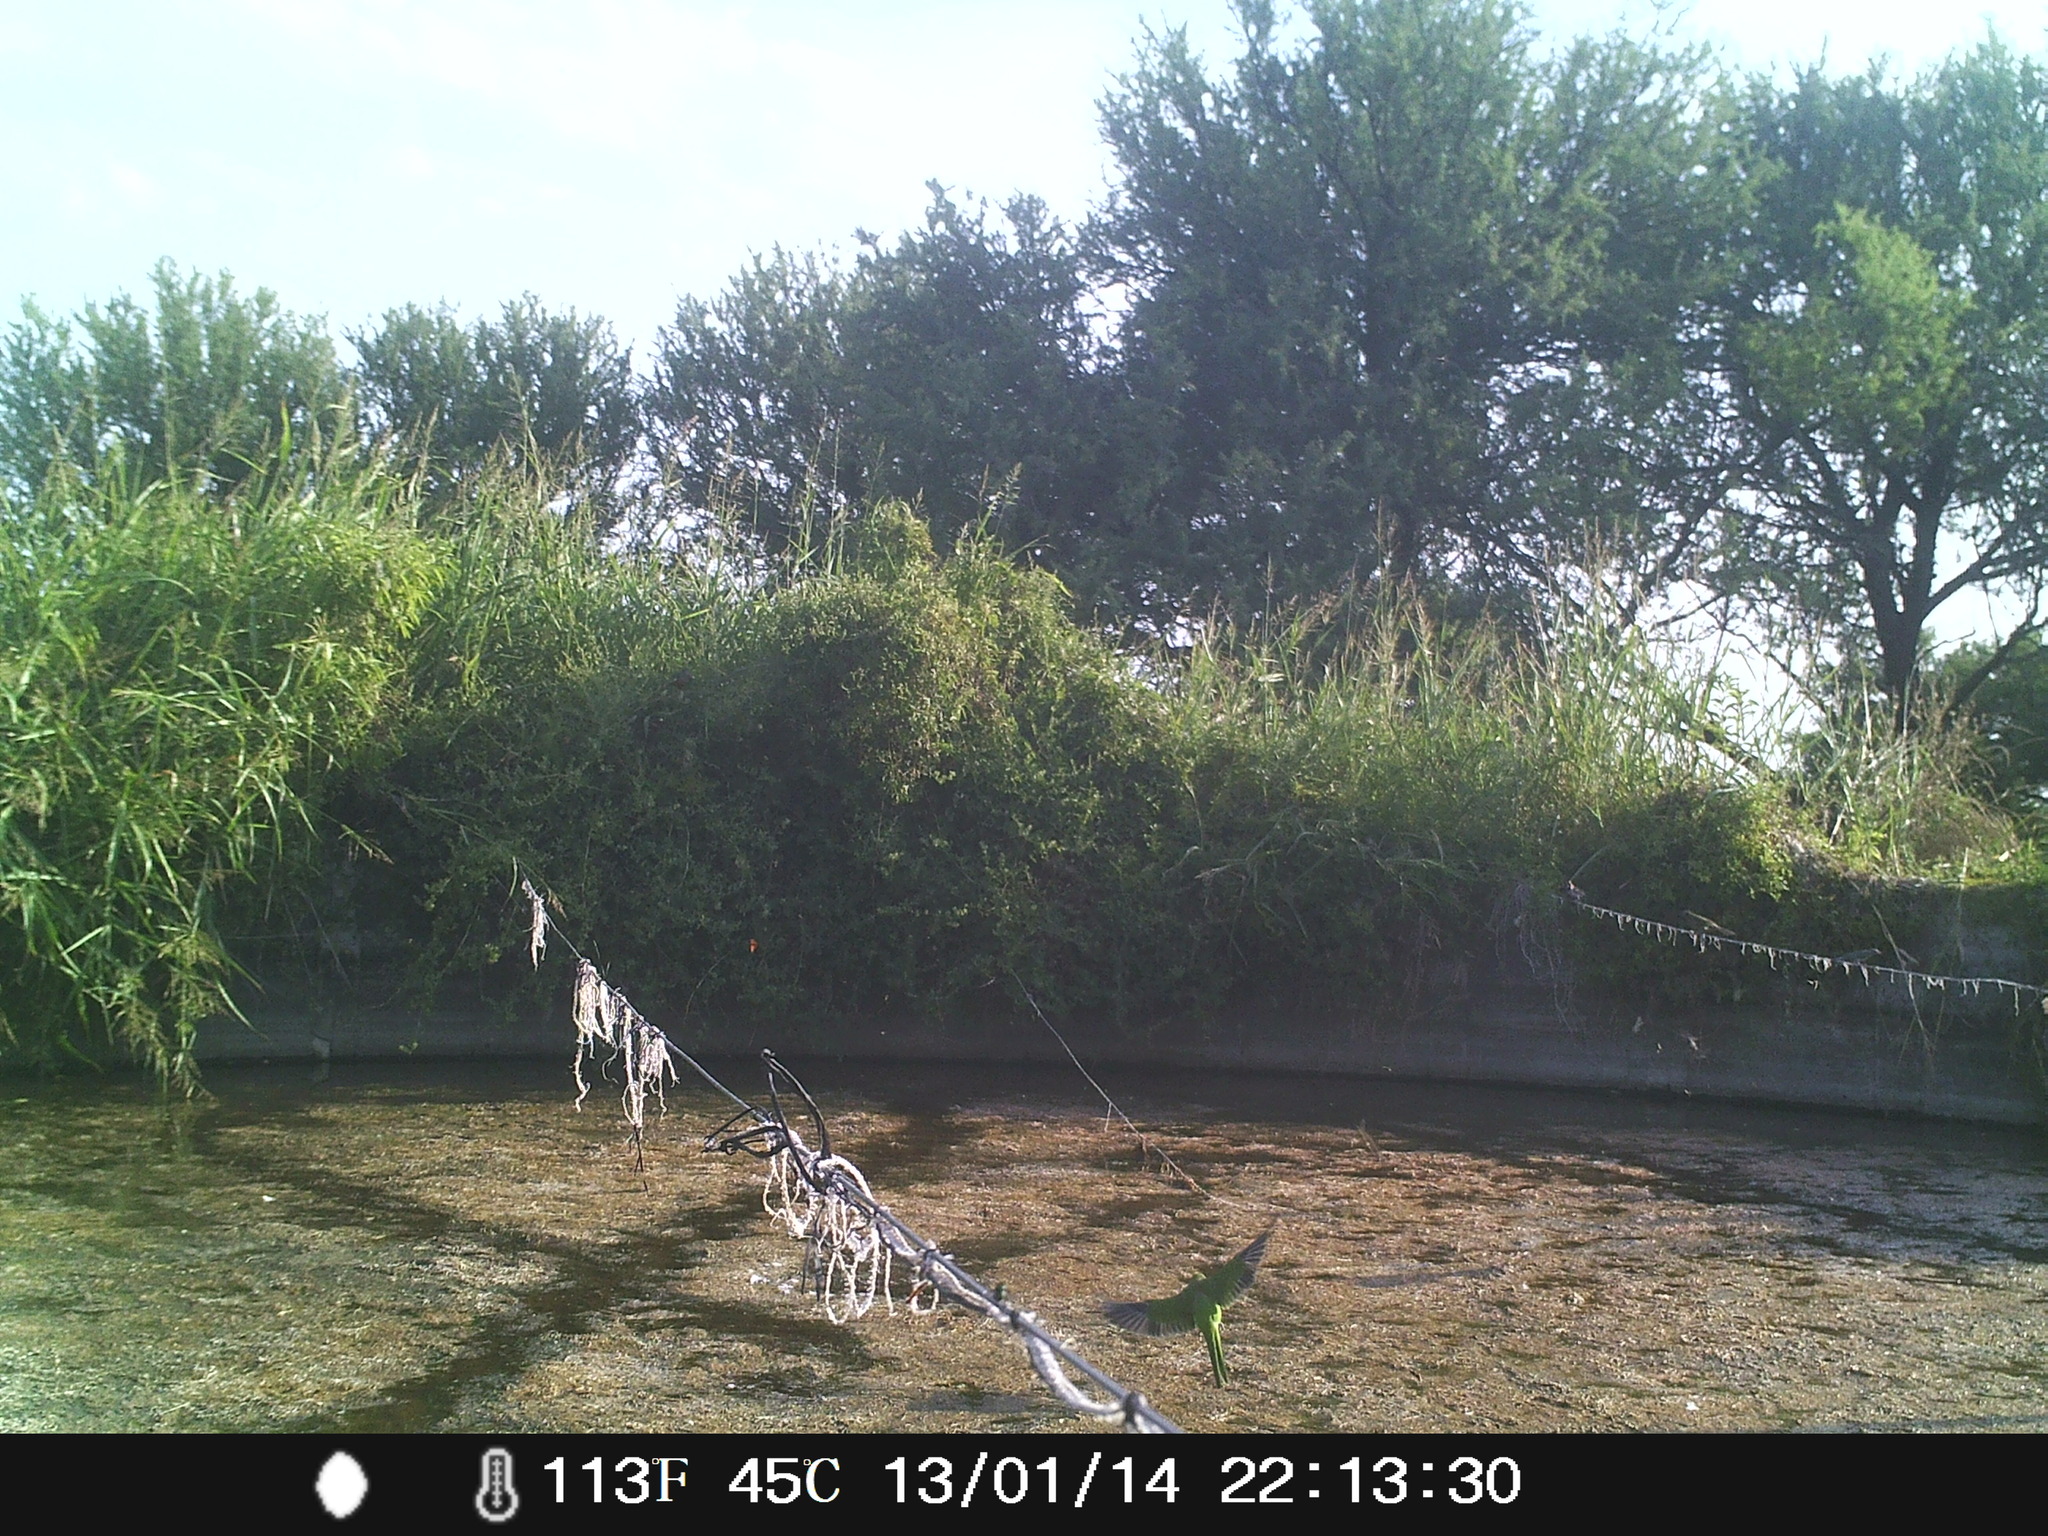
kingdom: Animalia
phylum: Chordata
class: Aves
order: Psittaciformes
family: Psittacidae
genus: Myiopsitta
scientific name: Myiopsitta monachus
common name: Monk parakeet
